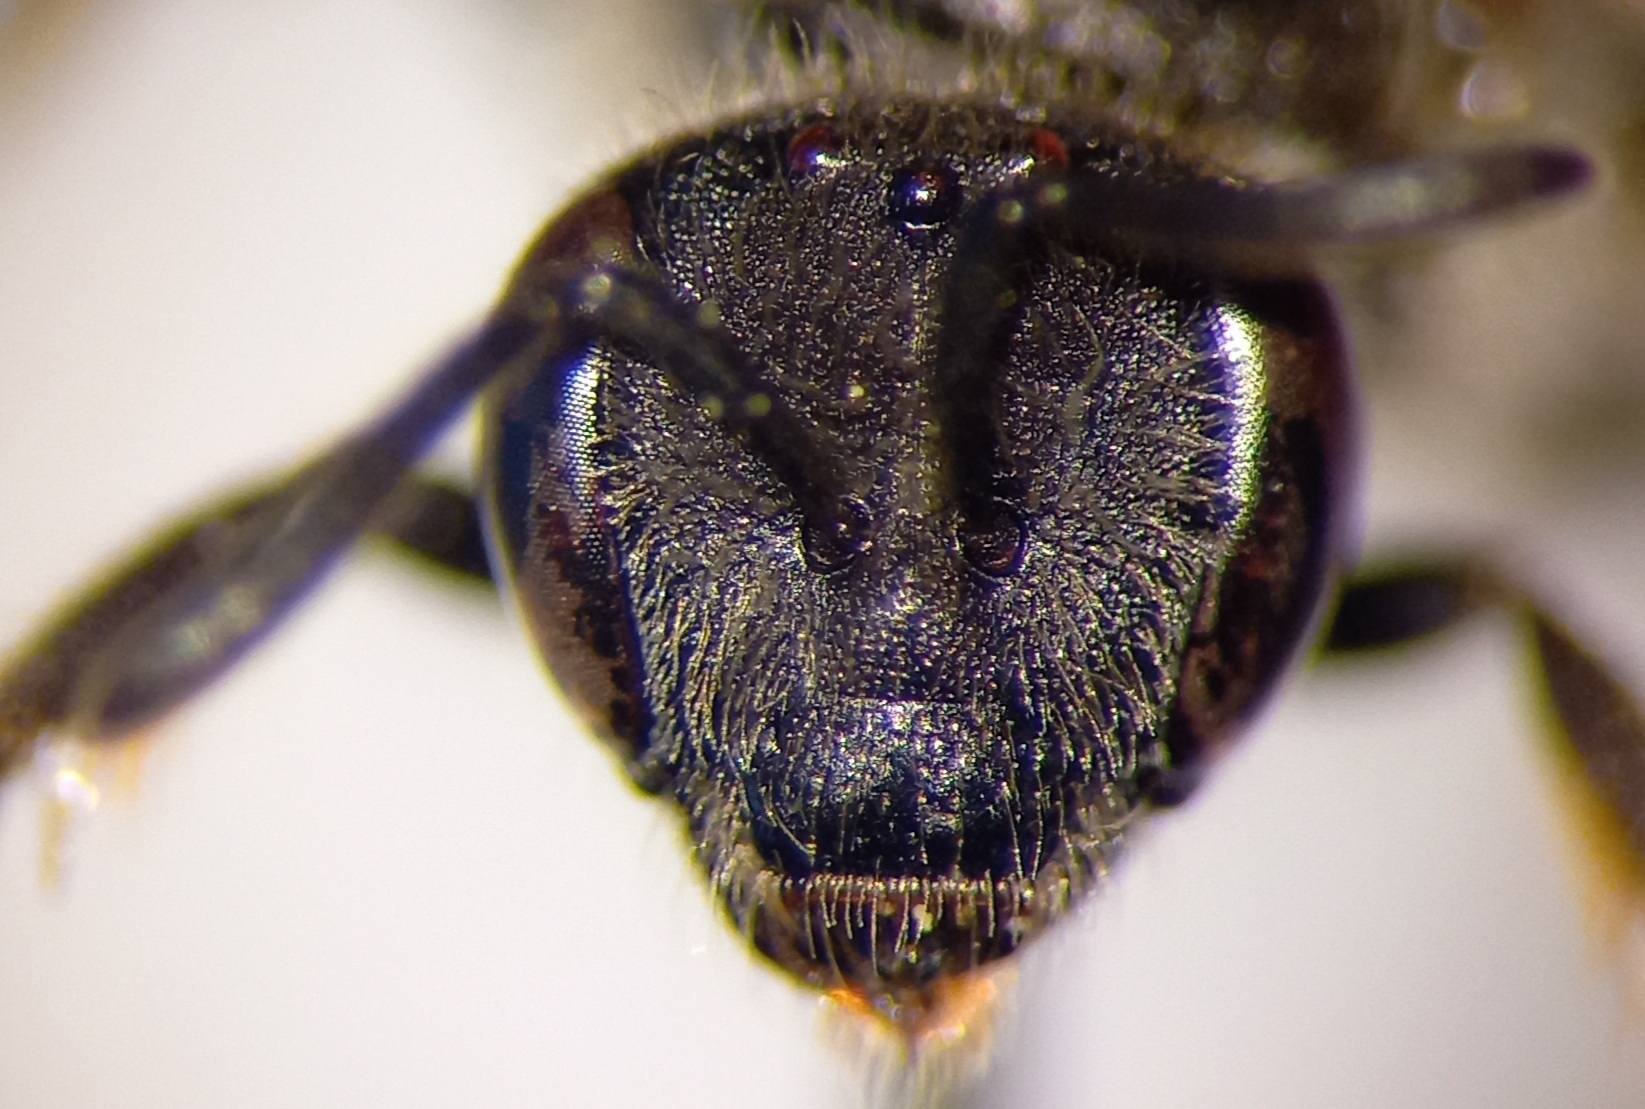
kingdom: Animalia
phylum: Arthropoda
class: Insecta
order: Hymenoptera
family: Halictidae
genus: Lasioglossum
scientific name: Lasioglossum malachurum
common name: Sharp-collared furrow bee
